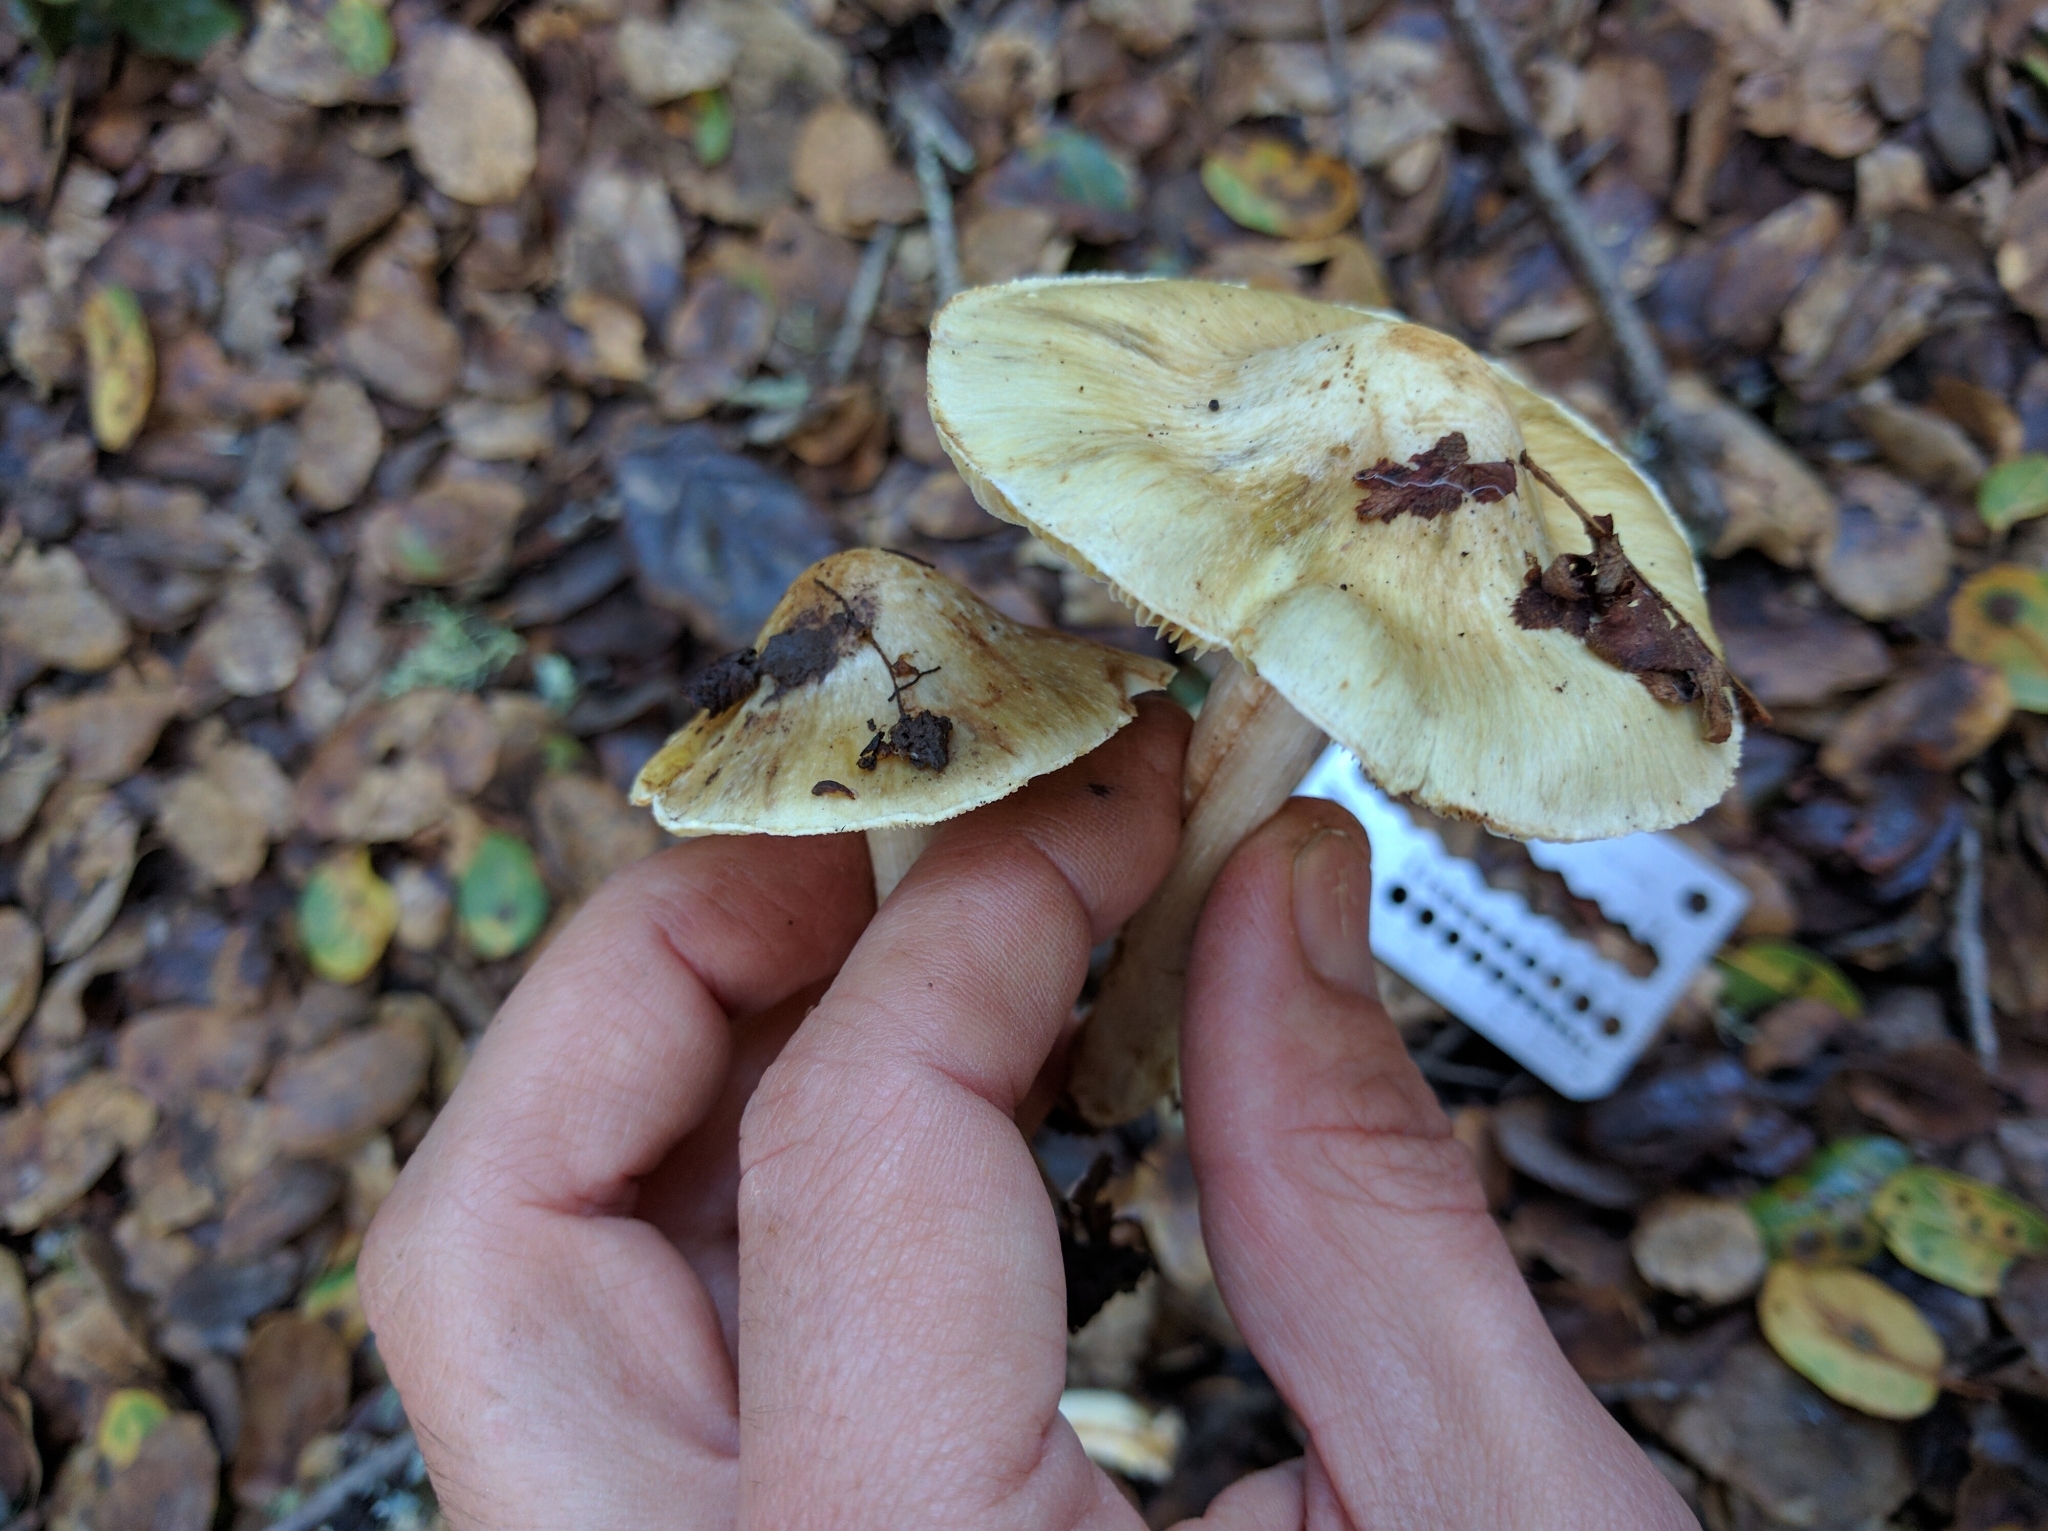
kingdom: Fungi
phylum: Basidiomycota
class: Agaricomycetes
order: Agaricales
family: Inocybaceae
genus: Pseudosperma
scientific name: Pseudosperma sororium
